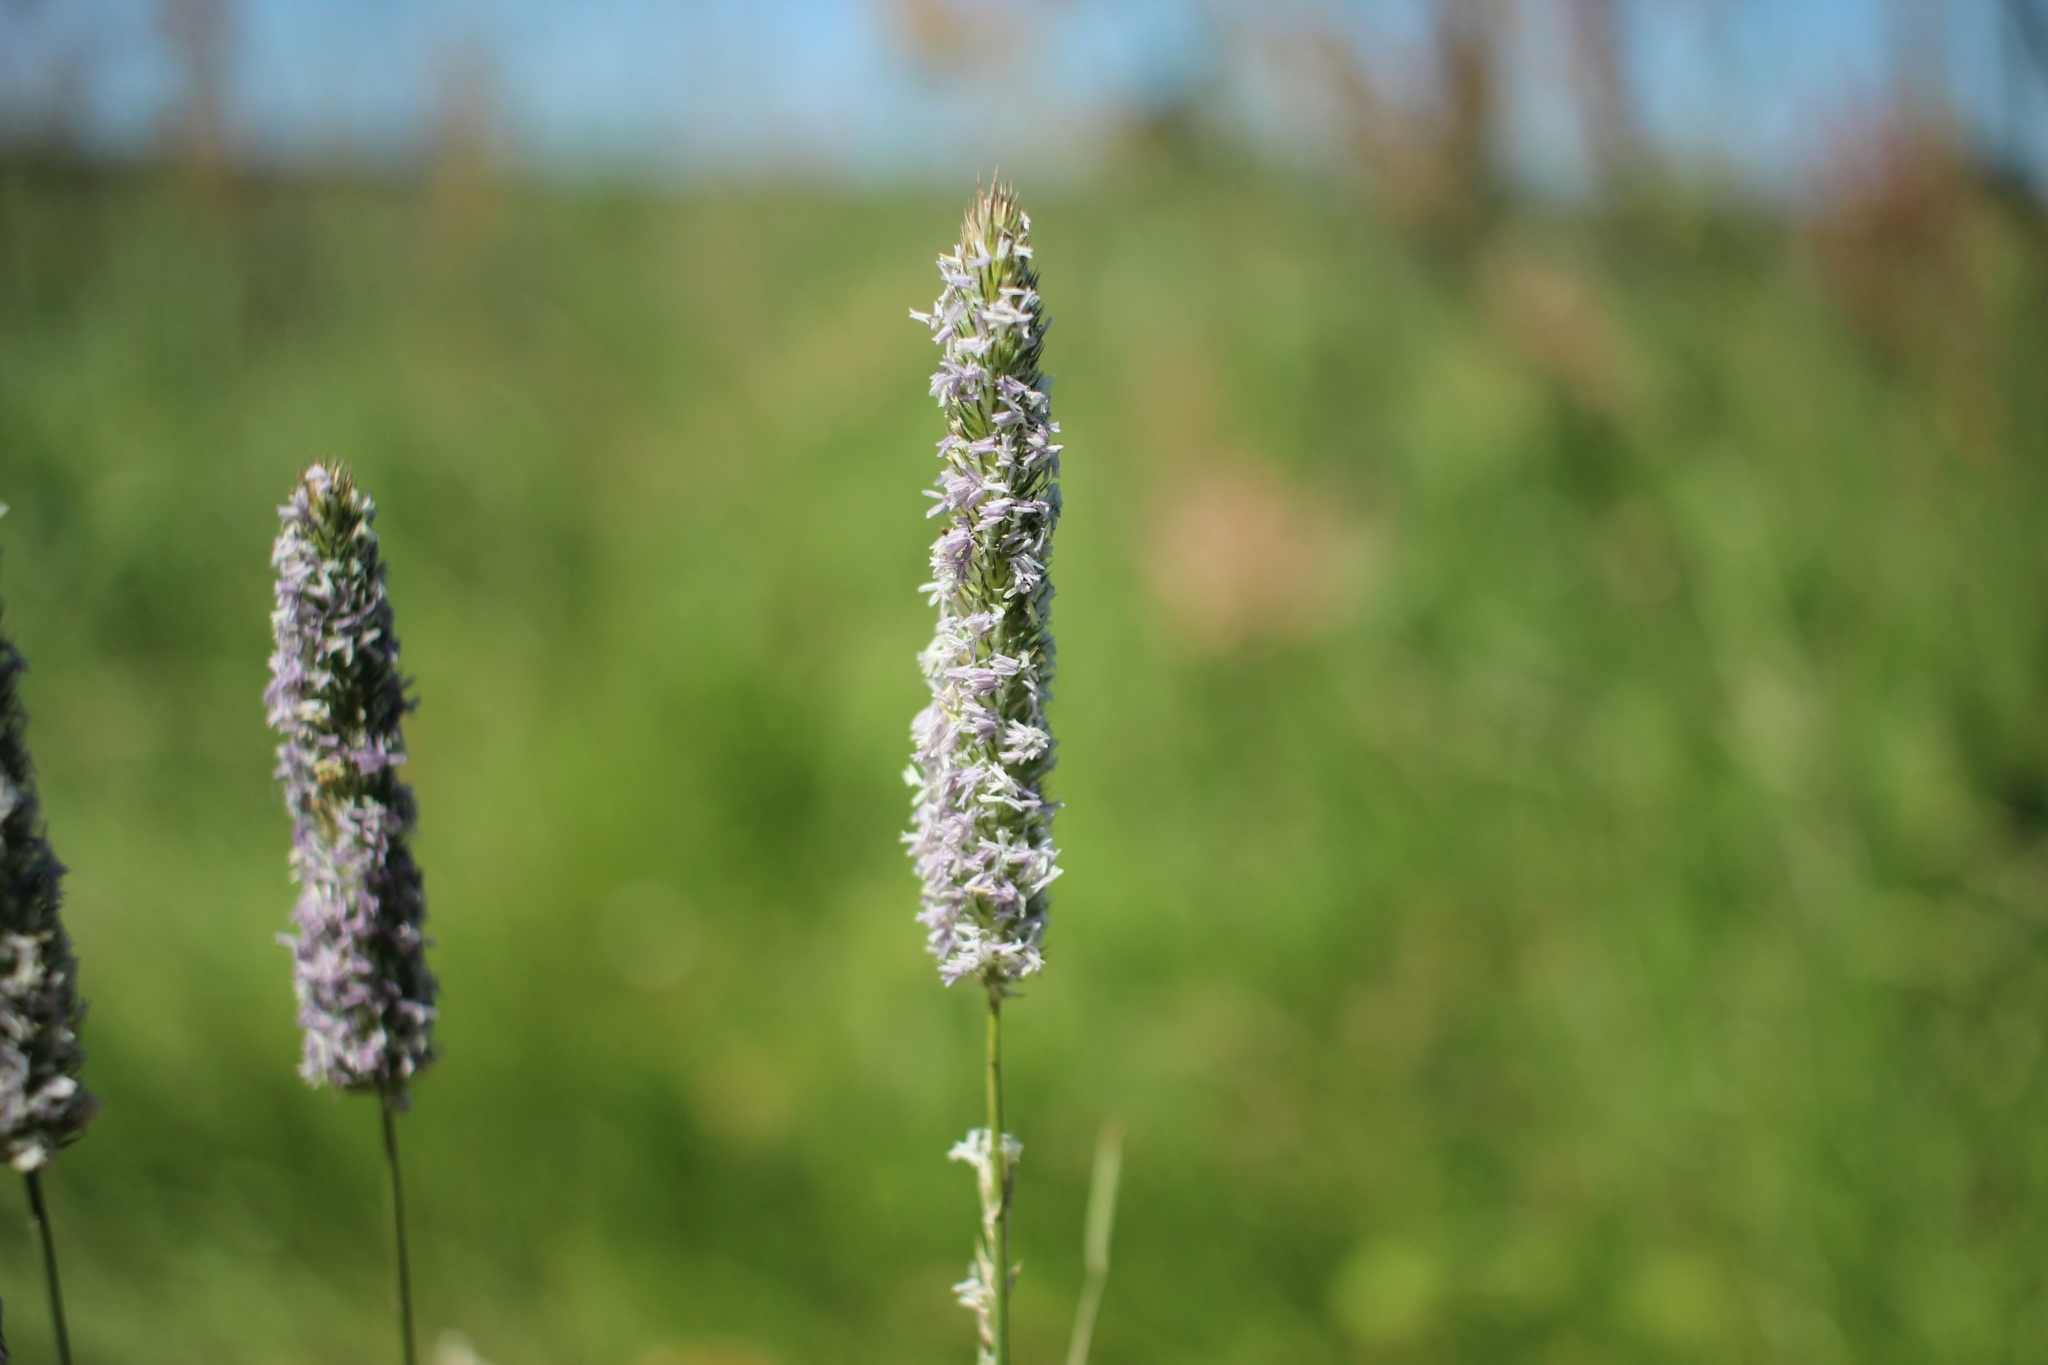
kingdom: Plantae
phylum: Tracheophyta
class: Liliopsida
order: Poales
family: Poaceae
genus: Phleum
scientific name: Phleum pratense
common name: Timothy grass
